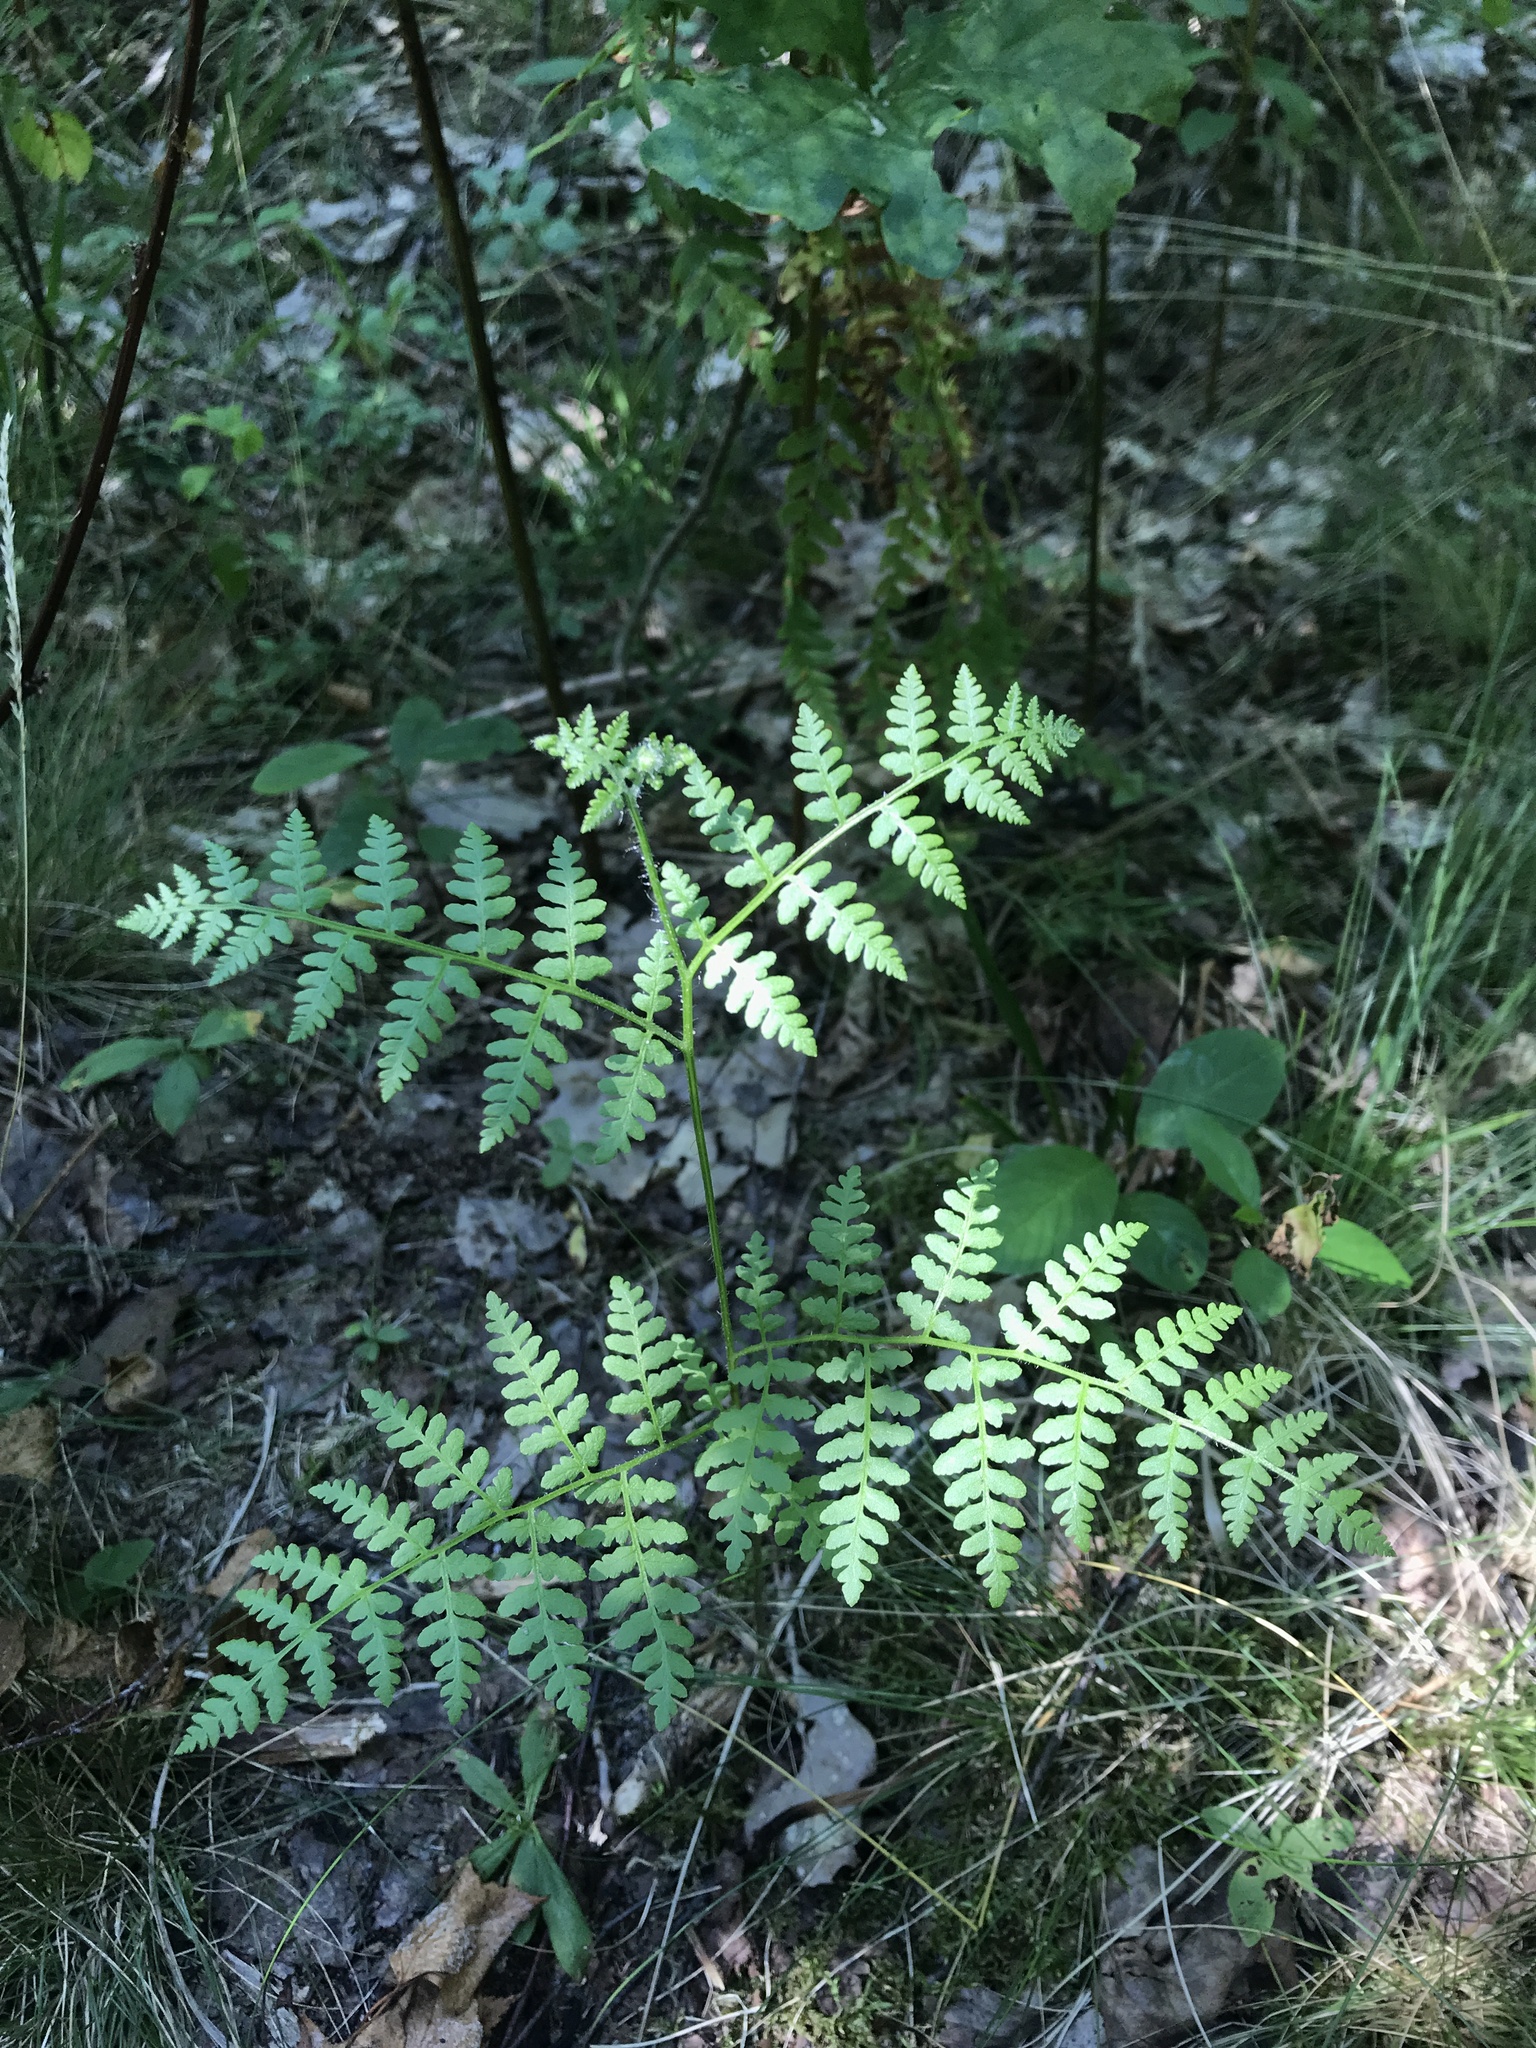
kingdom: Plantae
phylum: Tracheophyta
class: Polypodiopsida
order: Polypodiales
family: Dennstaedtiaceae
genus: Pteridium
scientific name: Pteridium aquilinum
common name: Bracken
